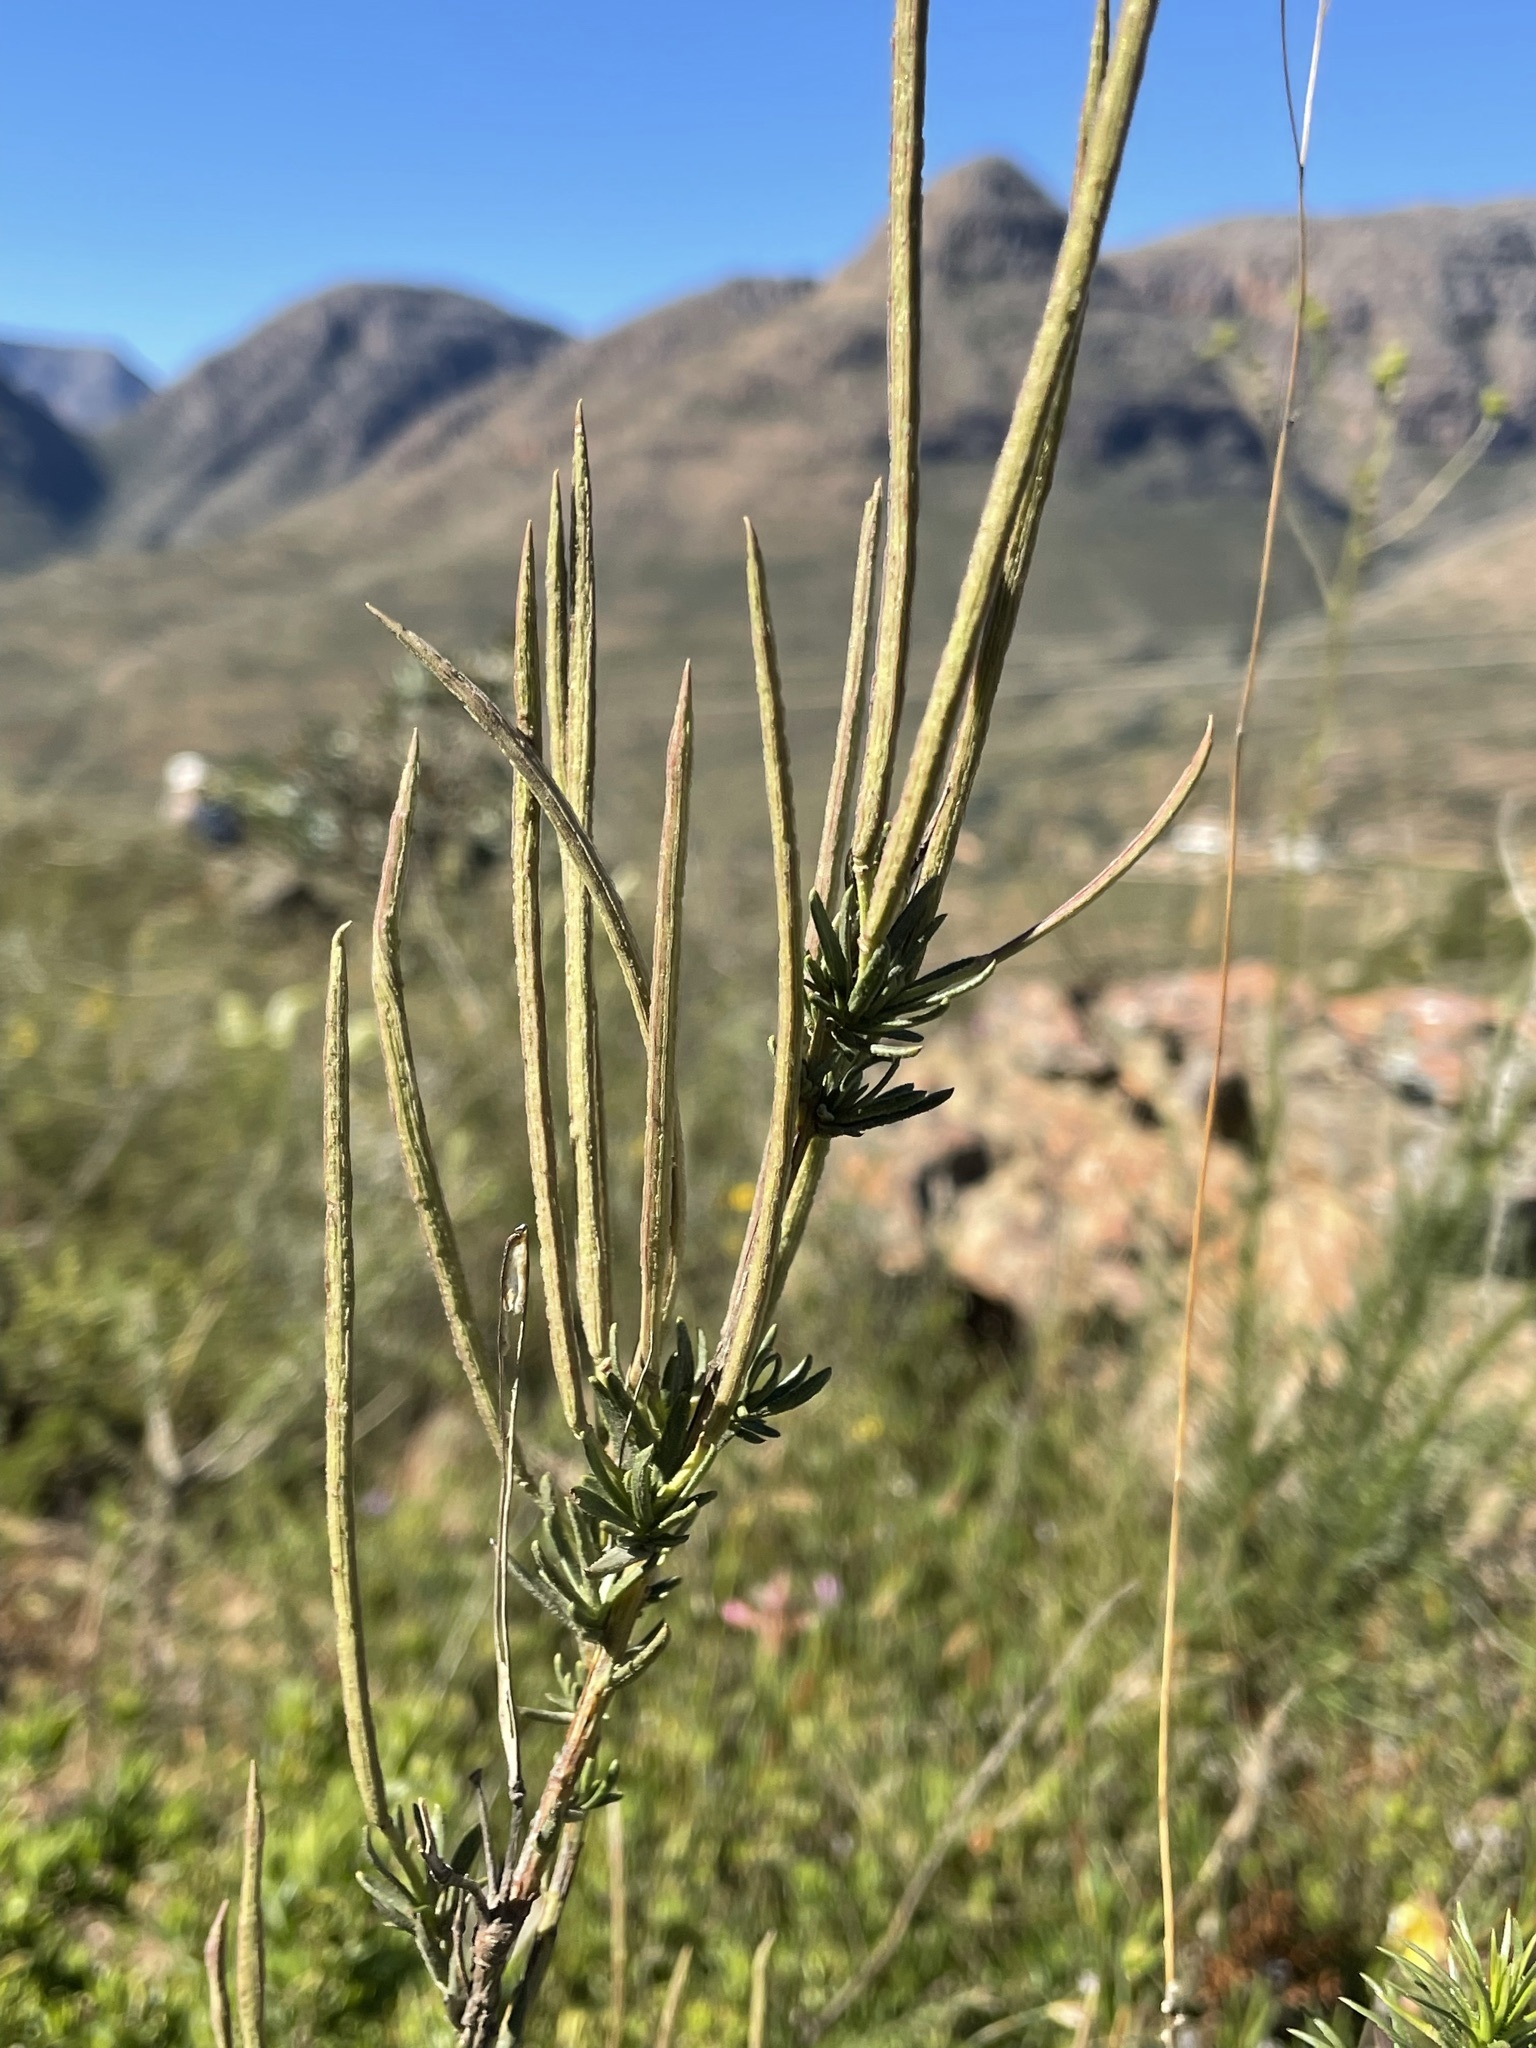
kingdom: Plantae
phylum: Tracheophyta
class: Magnoliopsida
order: Brassicales
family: Brassicaceae
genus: Heliophila
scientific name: Heliophila scoparia
